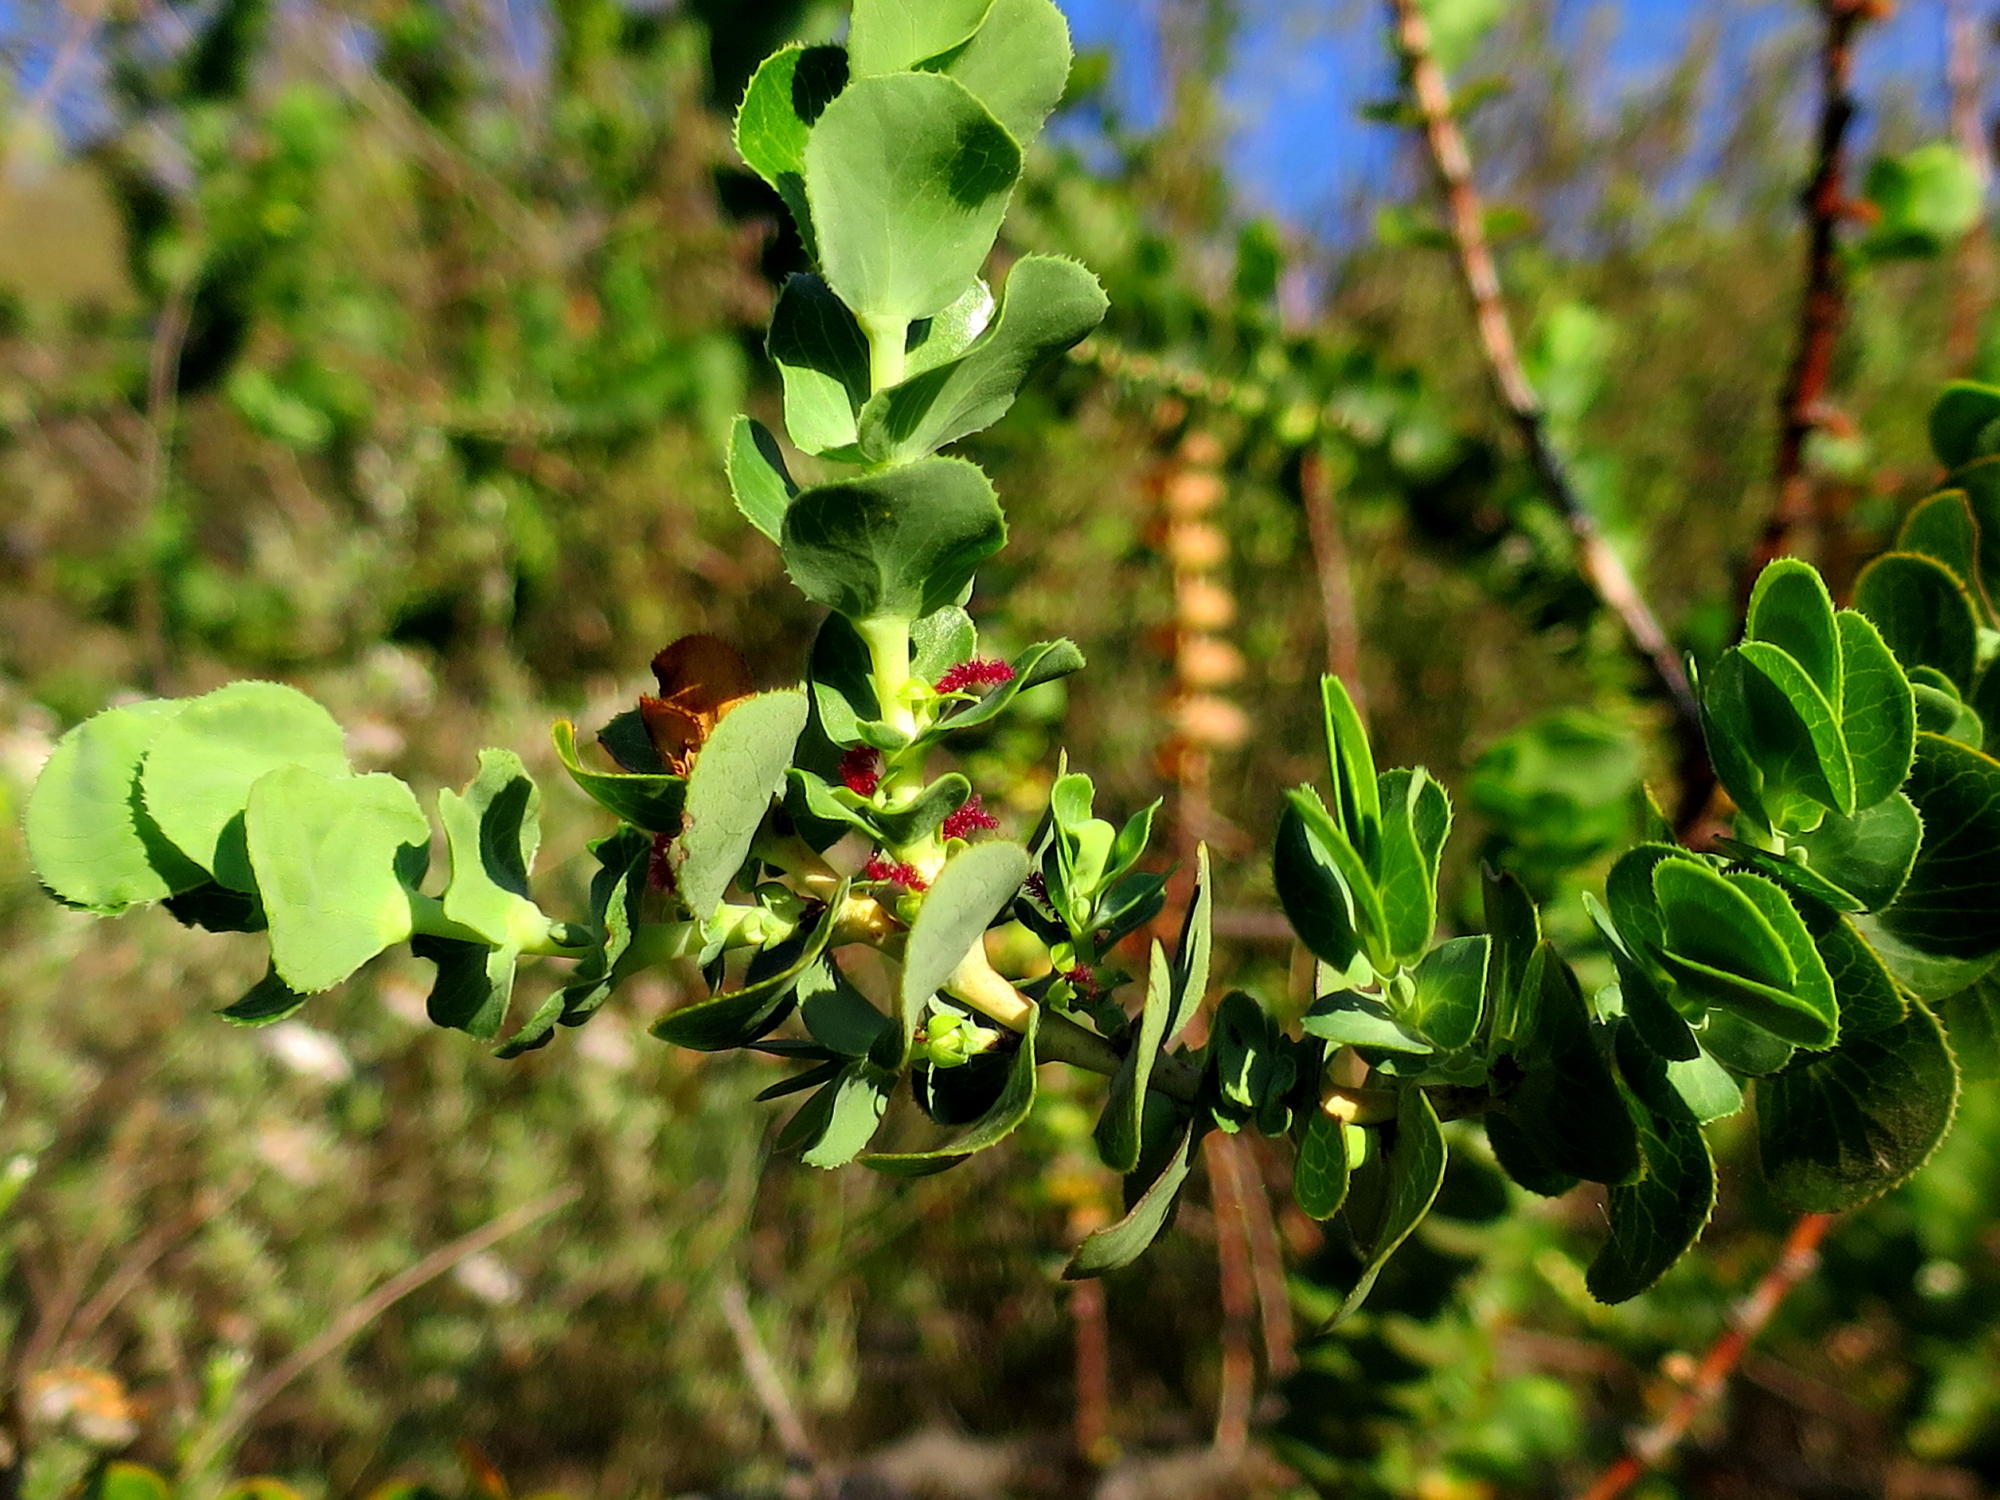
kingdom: Plantae
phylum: Tracheophyta
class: Magnoliopsida
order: Rosales
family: Rosaceae
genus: Cliffortia
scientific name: Cliffortia crenata
